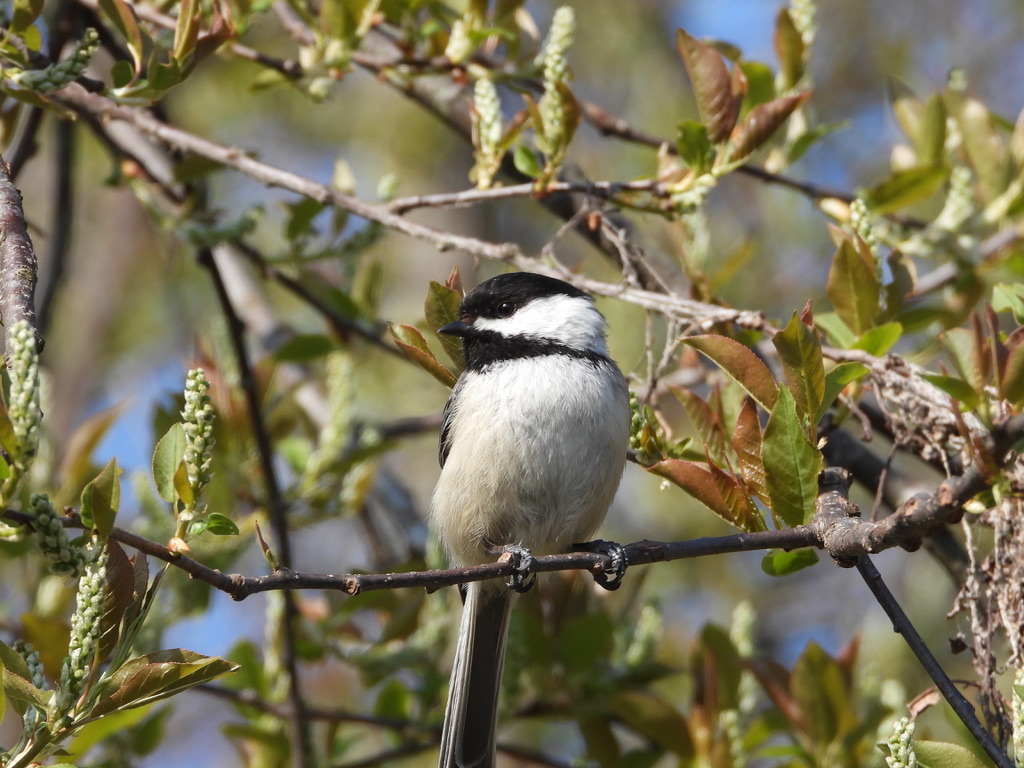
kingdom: Animalia
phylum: Chordata
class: Aves
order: Passeriformes
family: Paridae
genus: Poecile
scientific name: Poecile atricapillus
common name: Black-capped chickadee
